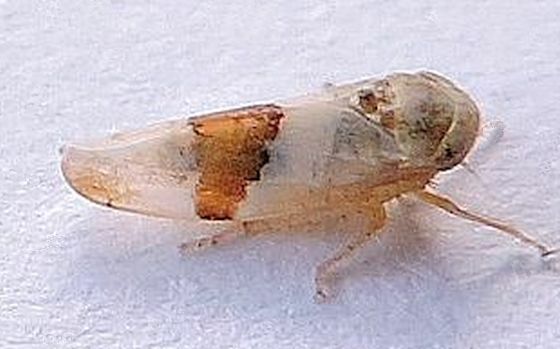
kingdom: Animalia
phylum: Arthropoda
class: Insecta
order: Hemiptera
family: Cicadellidae
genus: Norvellina
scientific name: Norvellina seminuda
